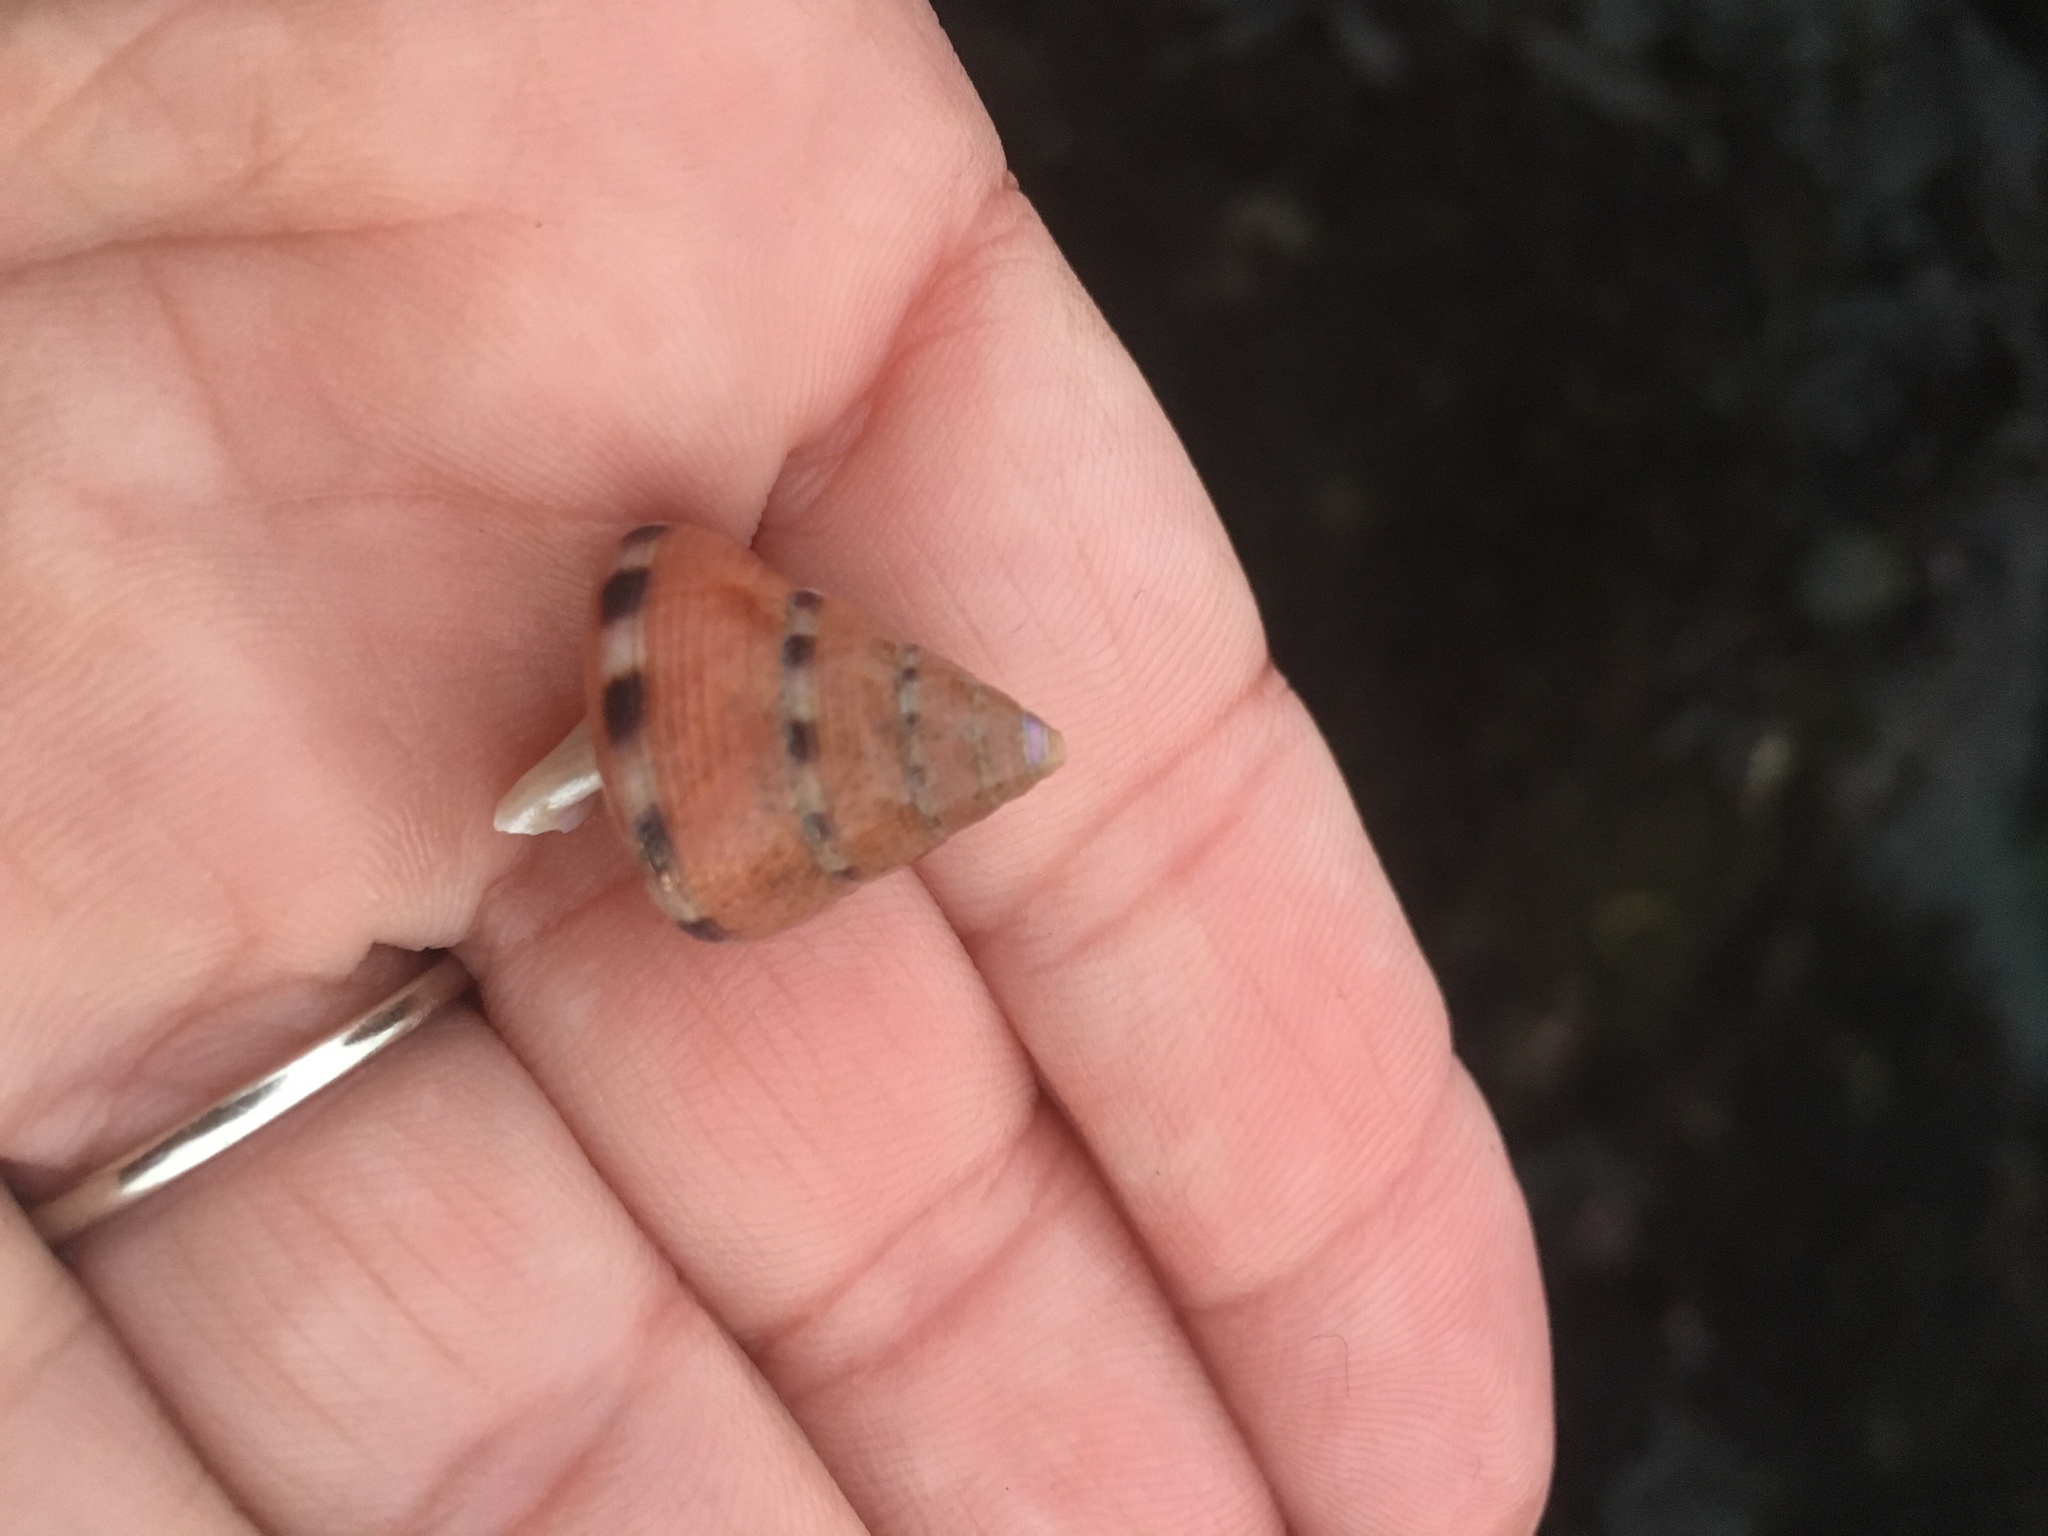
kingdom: Animalia
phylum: Mollusca
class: Gastropoda
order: Trochida
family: Calliostomatidae
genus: Calliostoma
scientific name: Calliostoma gloriosum
